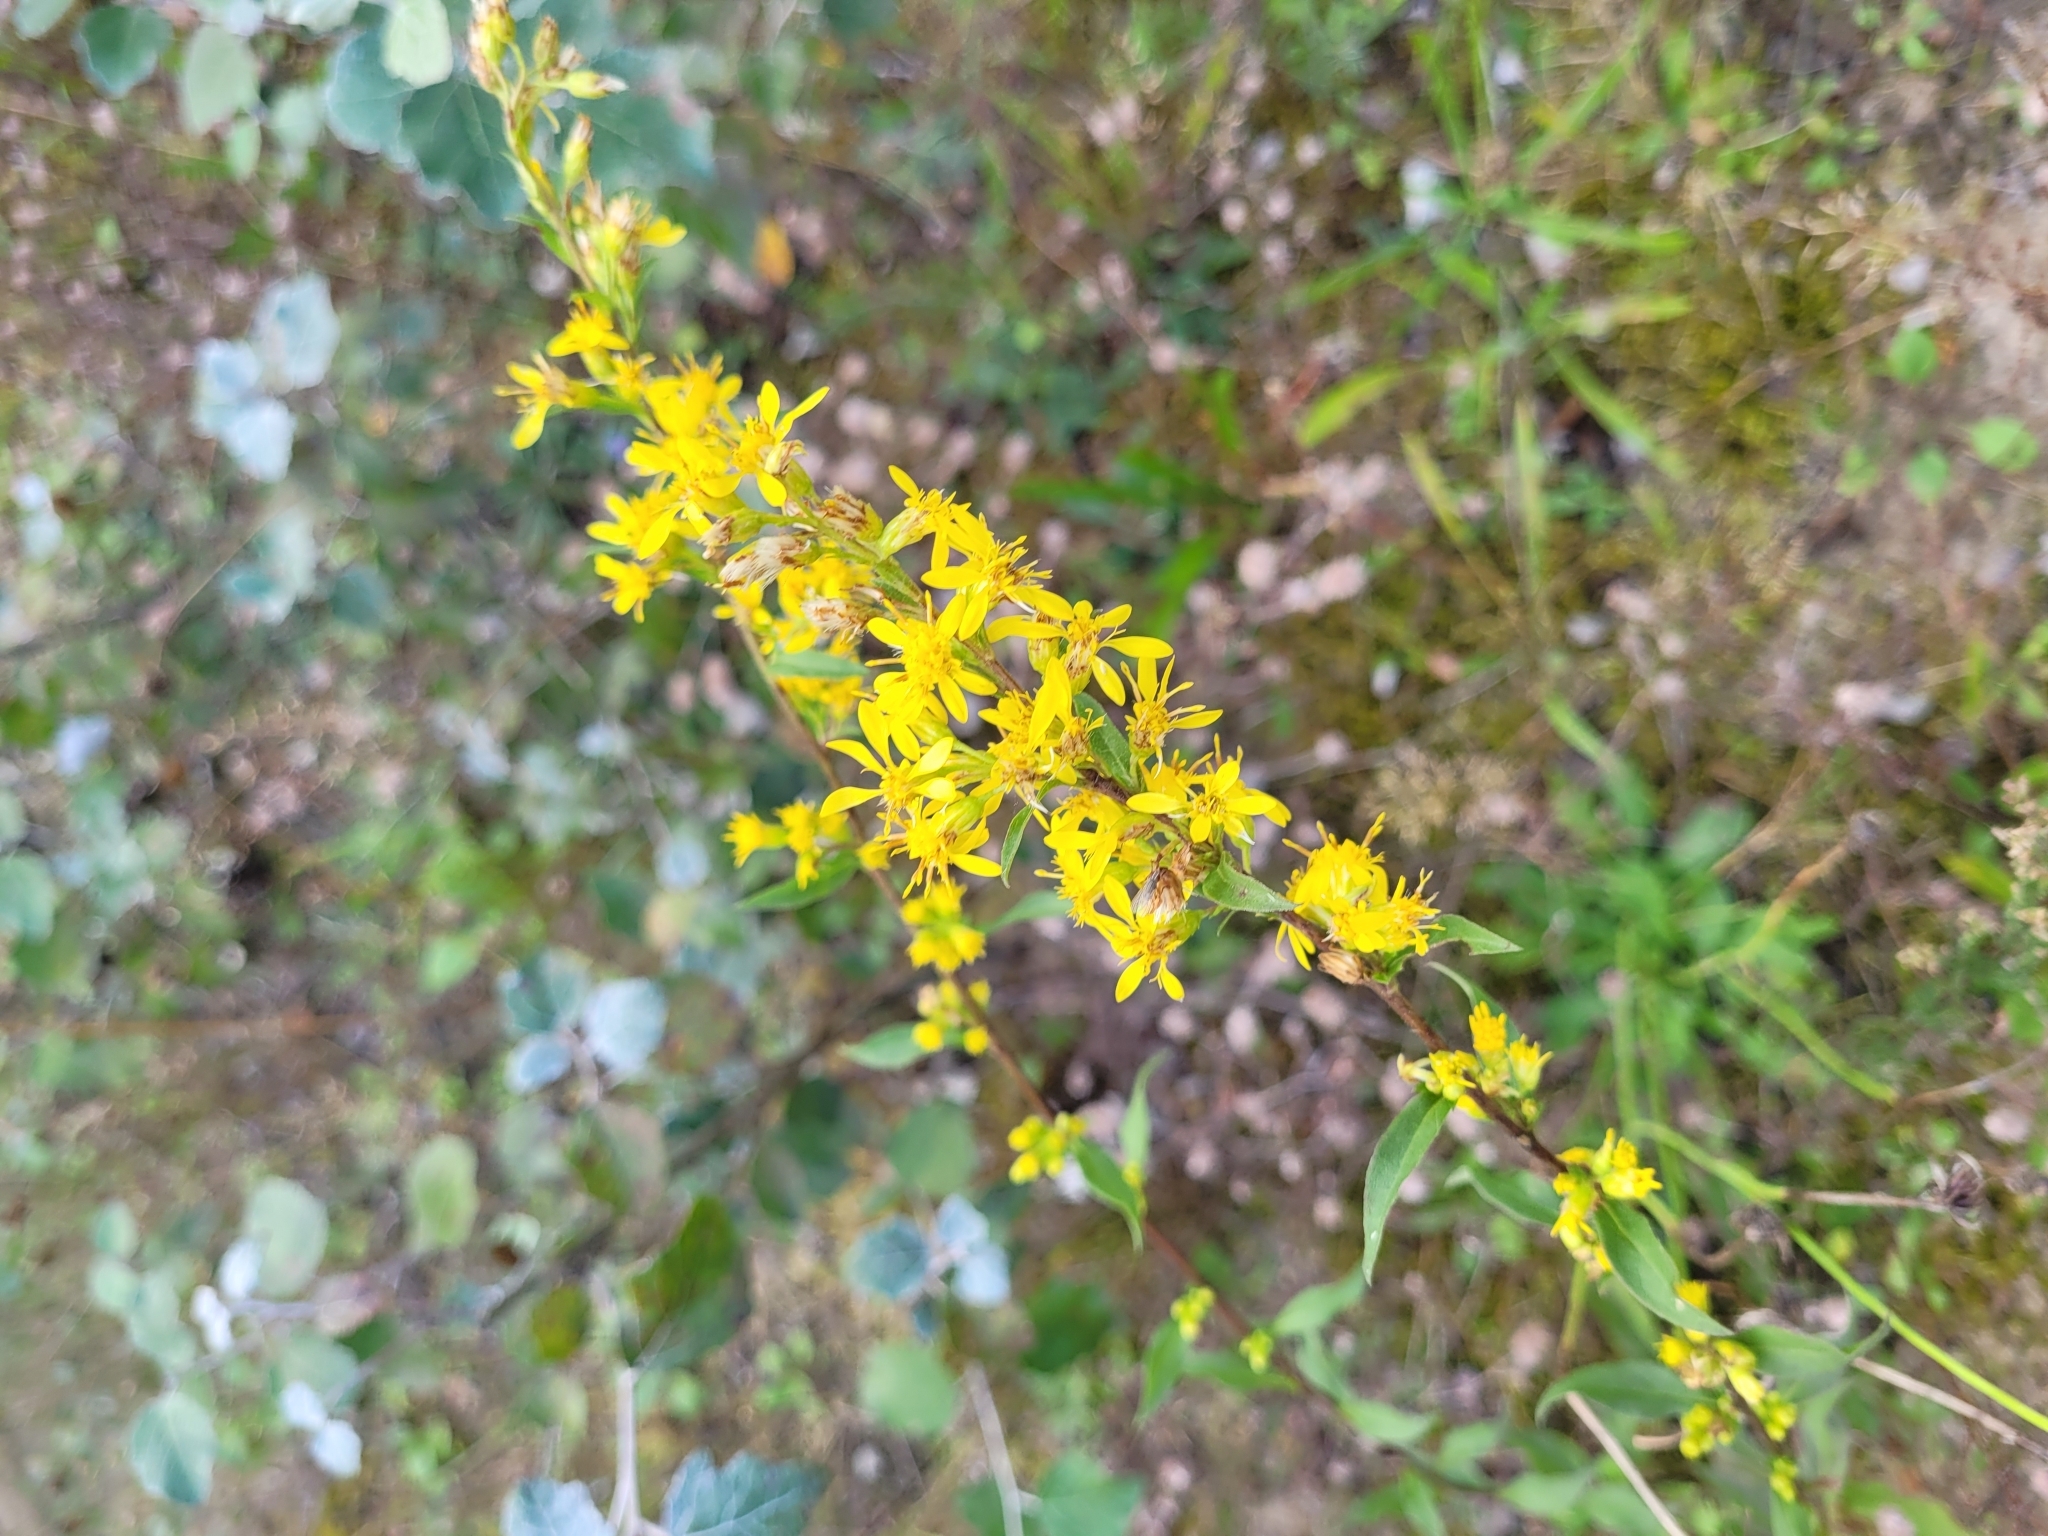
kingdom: Plantae
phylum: Tracheophyta
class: Magnoliopsida
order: Asterales
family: Asteraceae
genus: Solidago
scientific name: Solidago virgaurea
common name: Goldenrod
